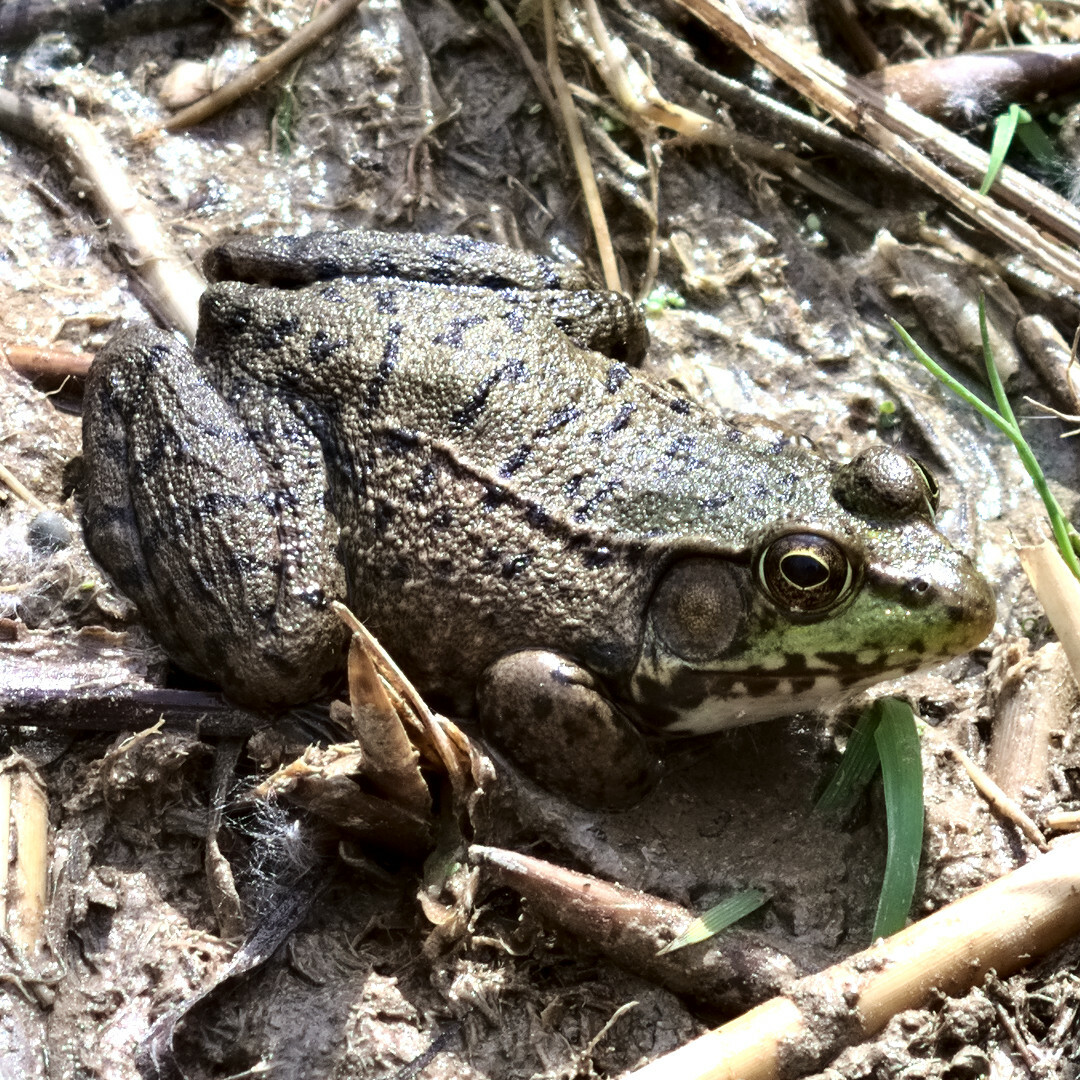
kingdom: Animalia
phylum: Chordata
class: Amphibia
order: Anura
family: Ranidae
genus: Lithobates
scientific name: Lithobates clamitans
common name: Green frog
